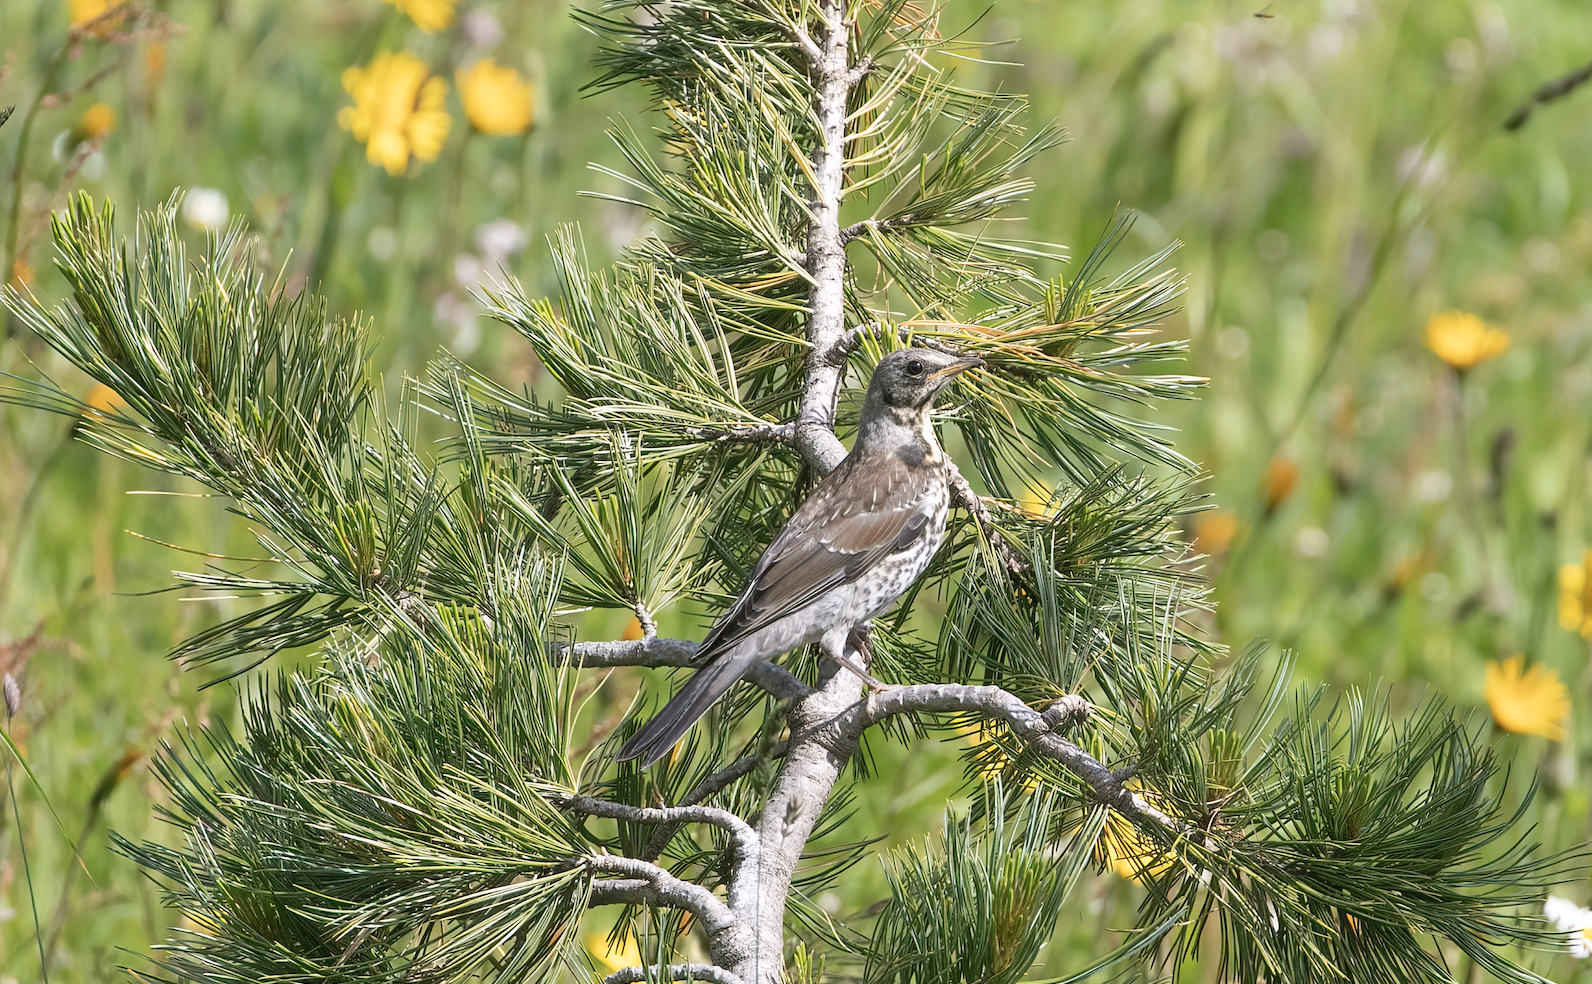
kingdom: Animalia
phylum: Chordata
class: Aves
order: Passeriformes
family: Turdidae
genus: Turdus
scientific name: Turdus pilaris
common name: Fieldfare
